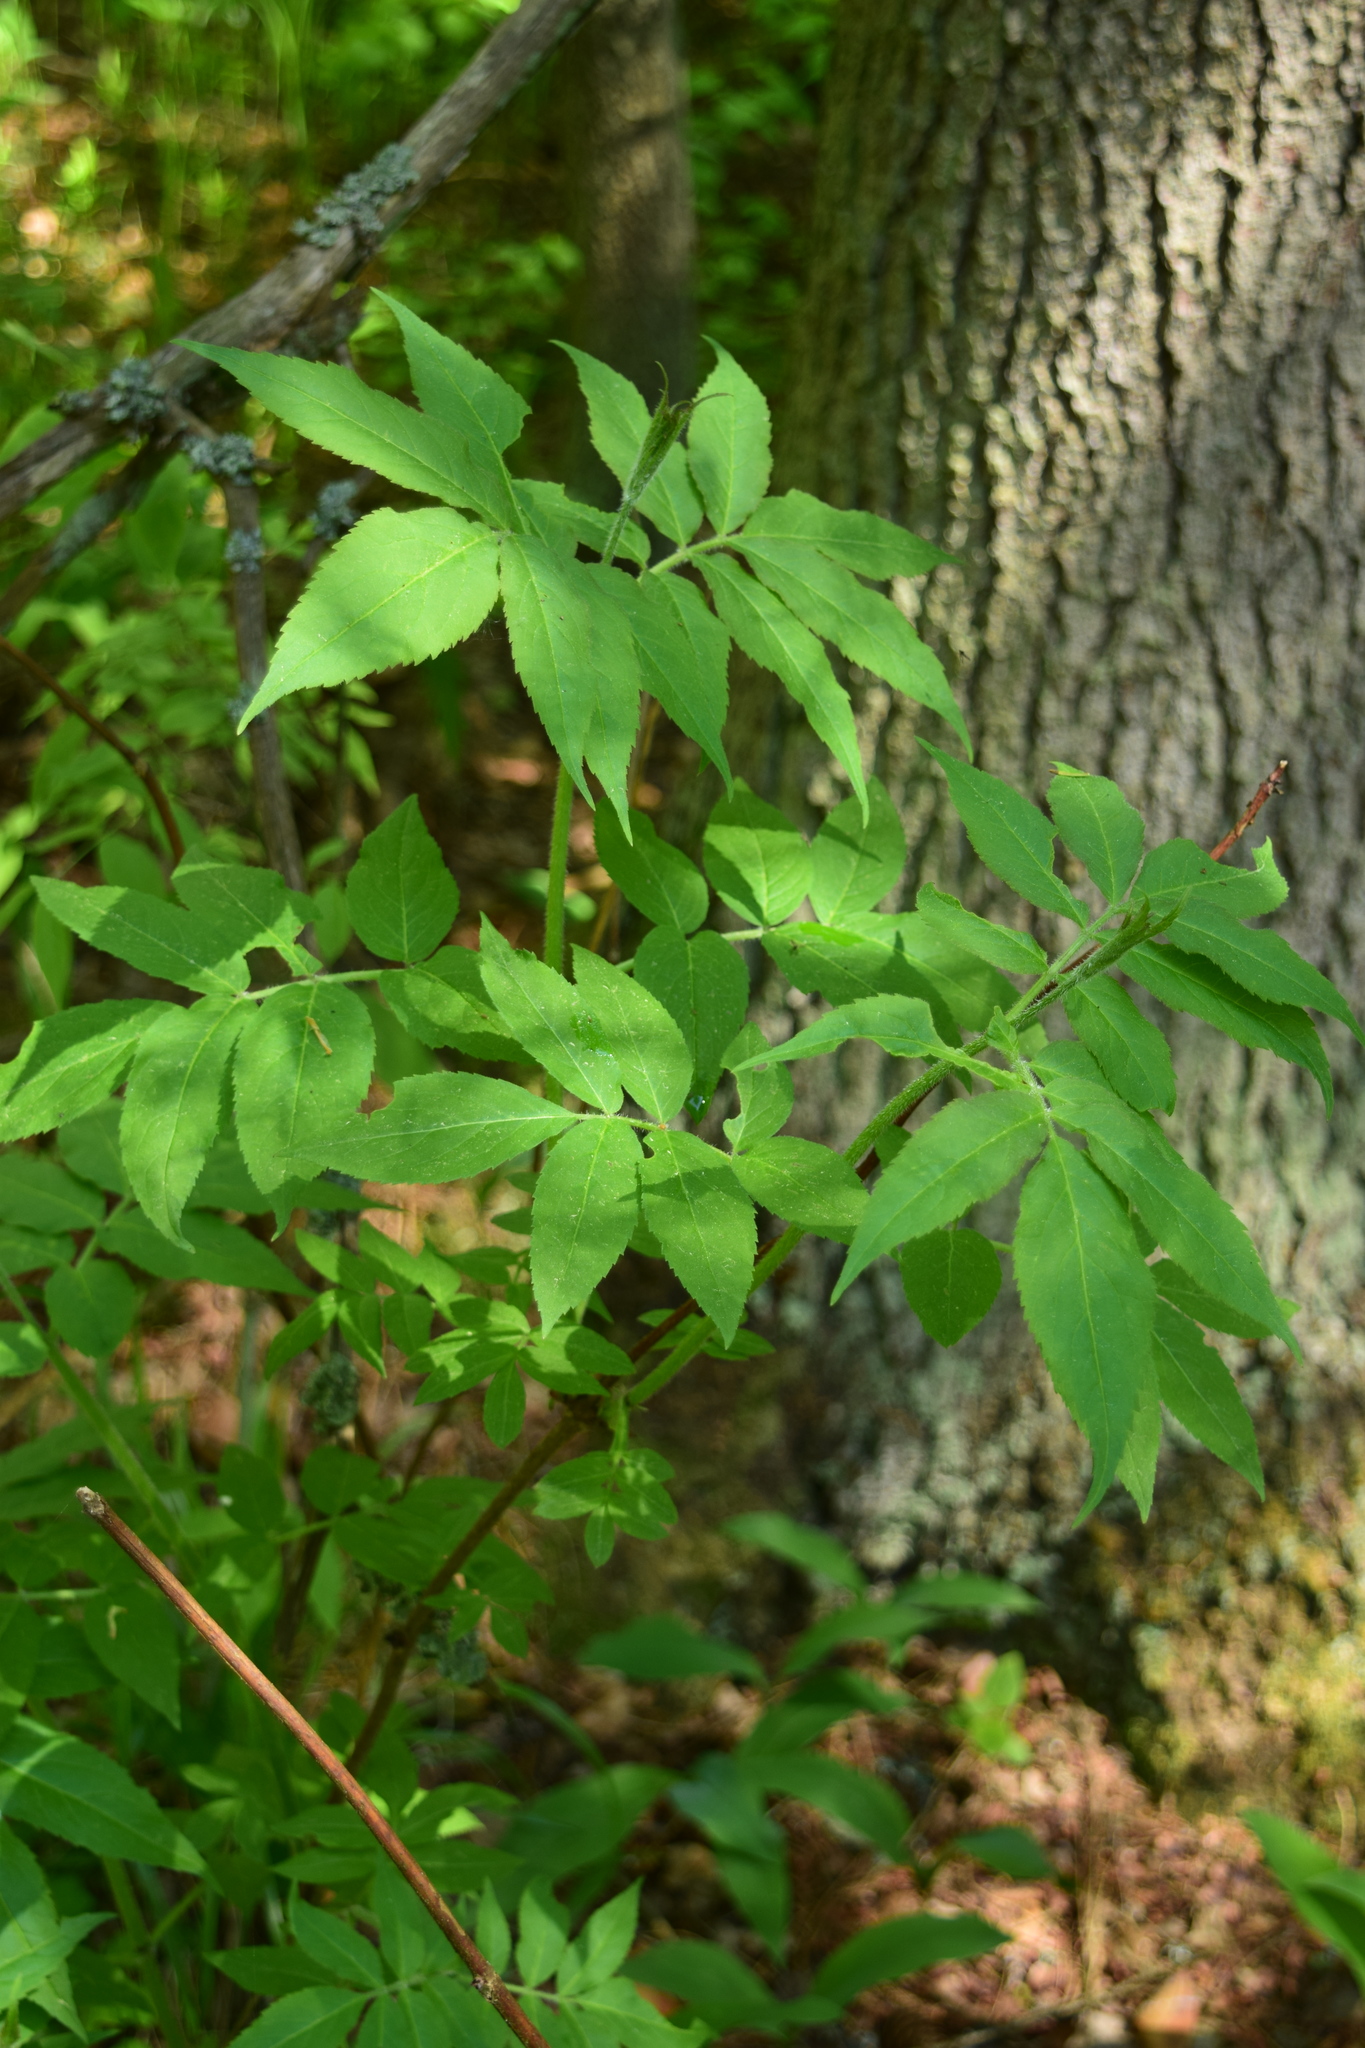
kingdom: Plantae
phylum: Tracheophyta
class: Magnoliopsida
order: Dipsacales
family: Viburnaceae
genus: Sambucus
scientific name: Sambucus racemosa
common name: Red-berried elder
